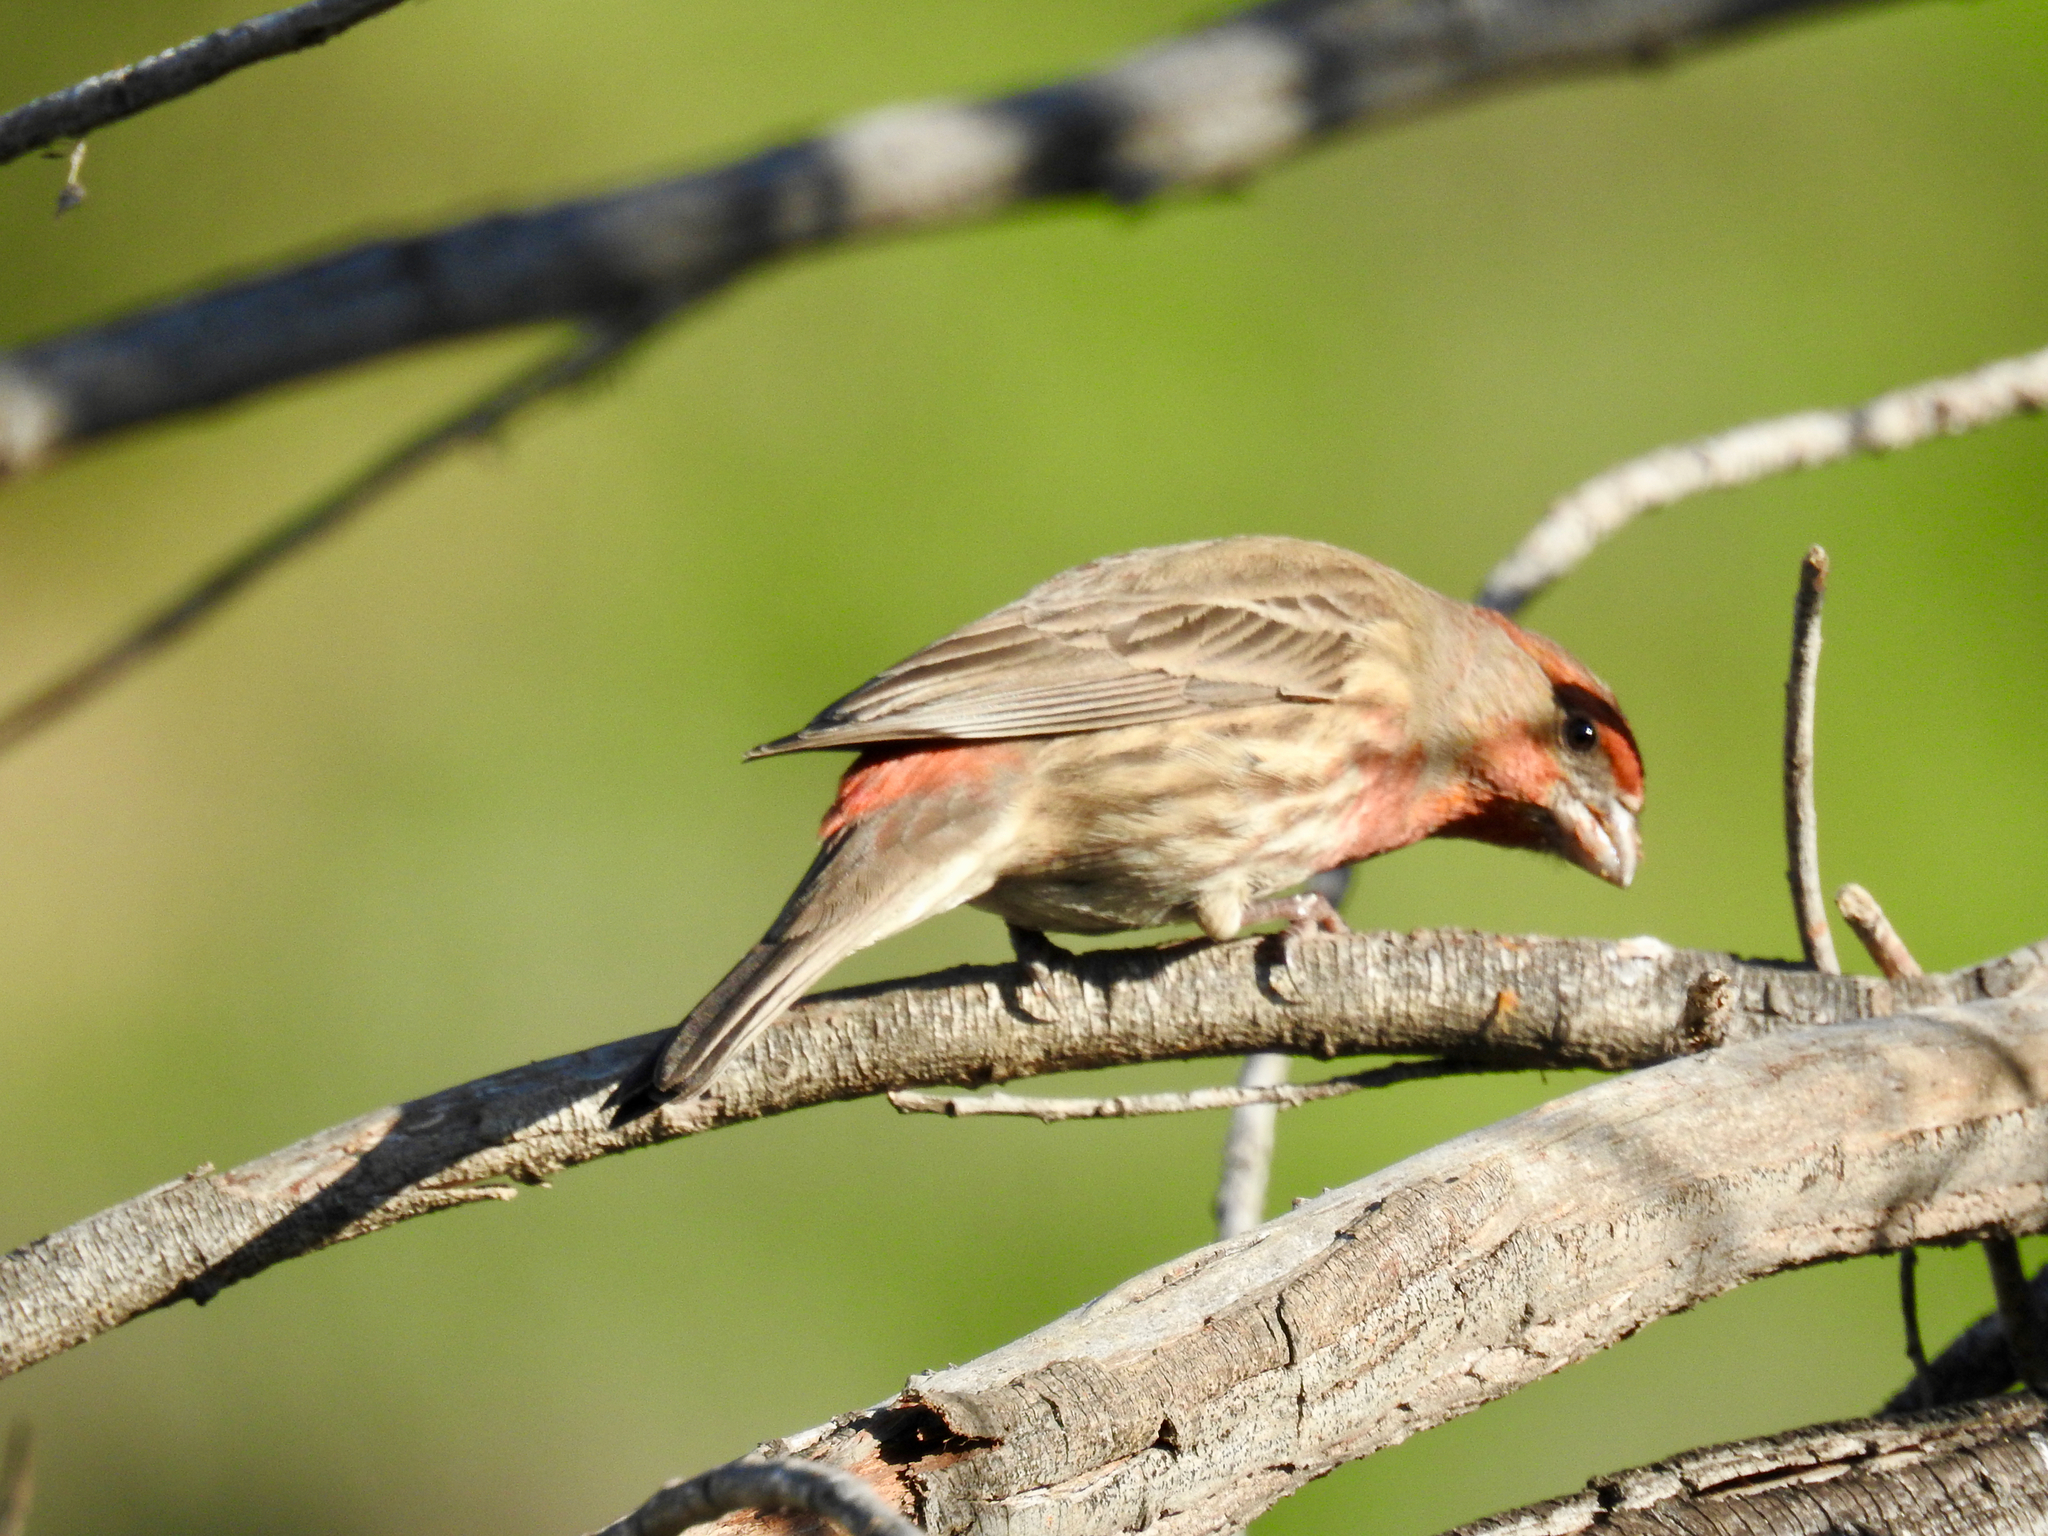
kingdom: Animalia
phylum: Chordata
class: Aves
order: Passeriformes
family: Fringillidae
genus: Haemorhous
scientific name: Haemorhous mexicanus
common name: House finch
